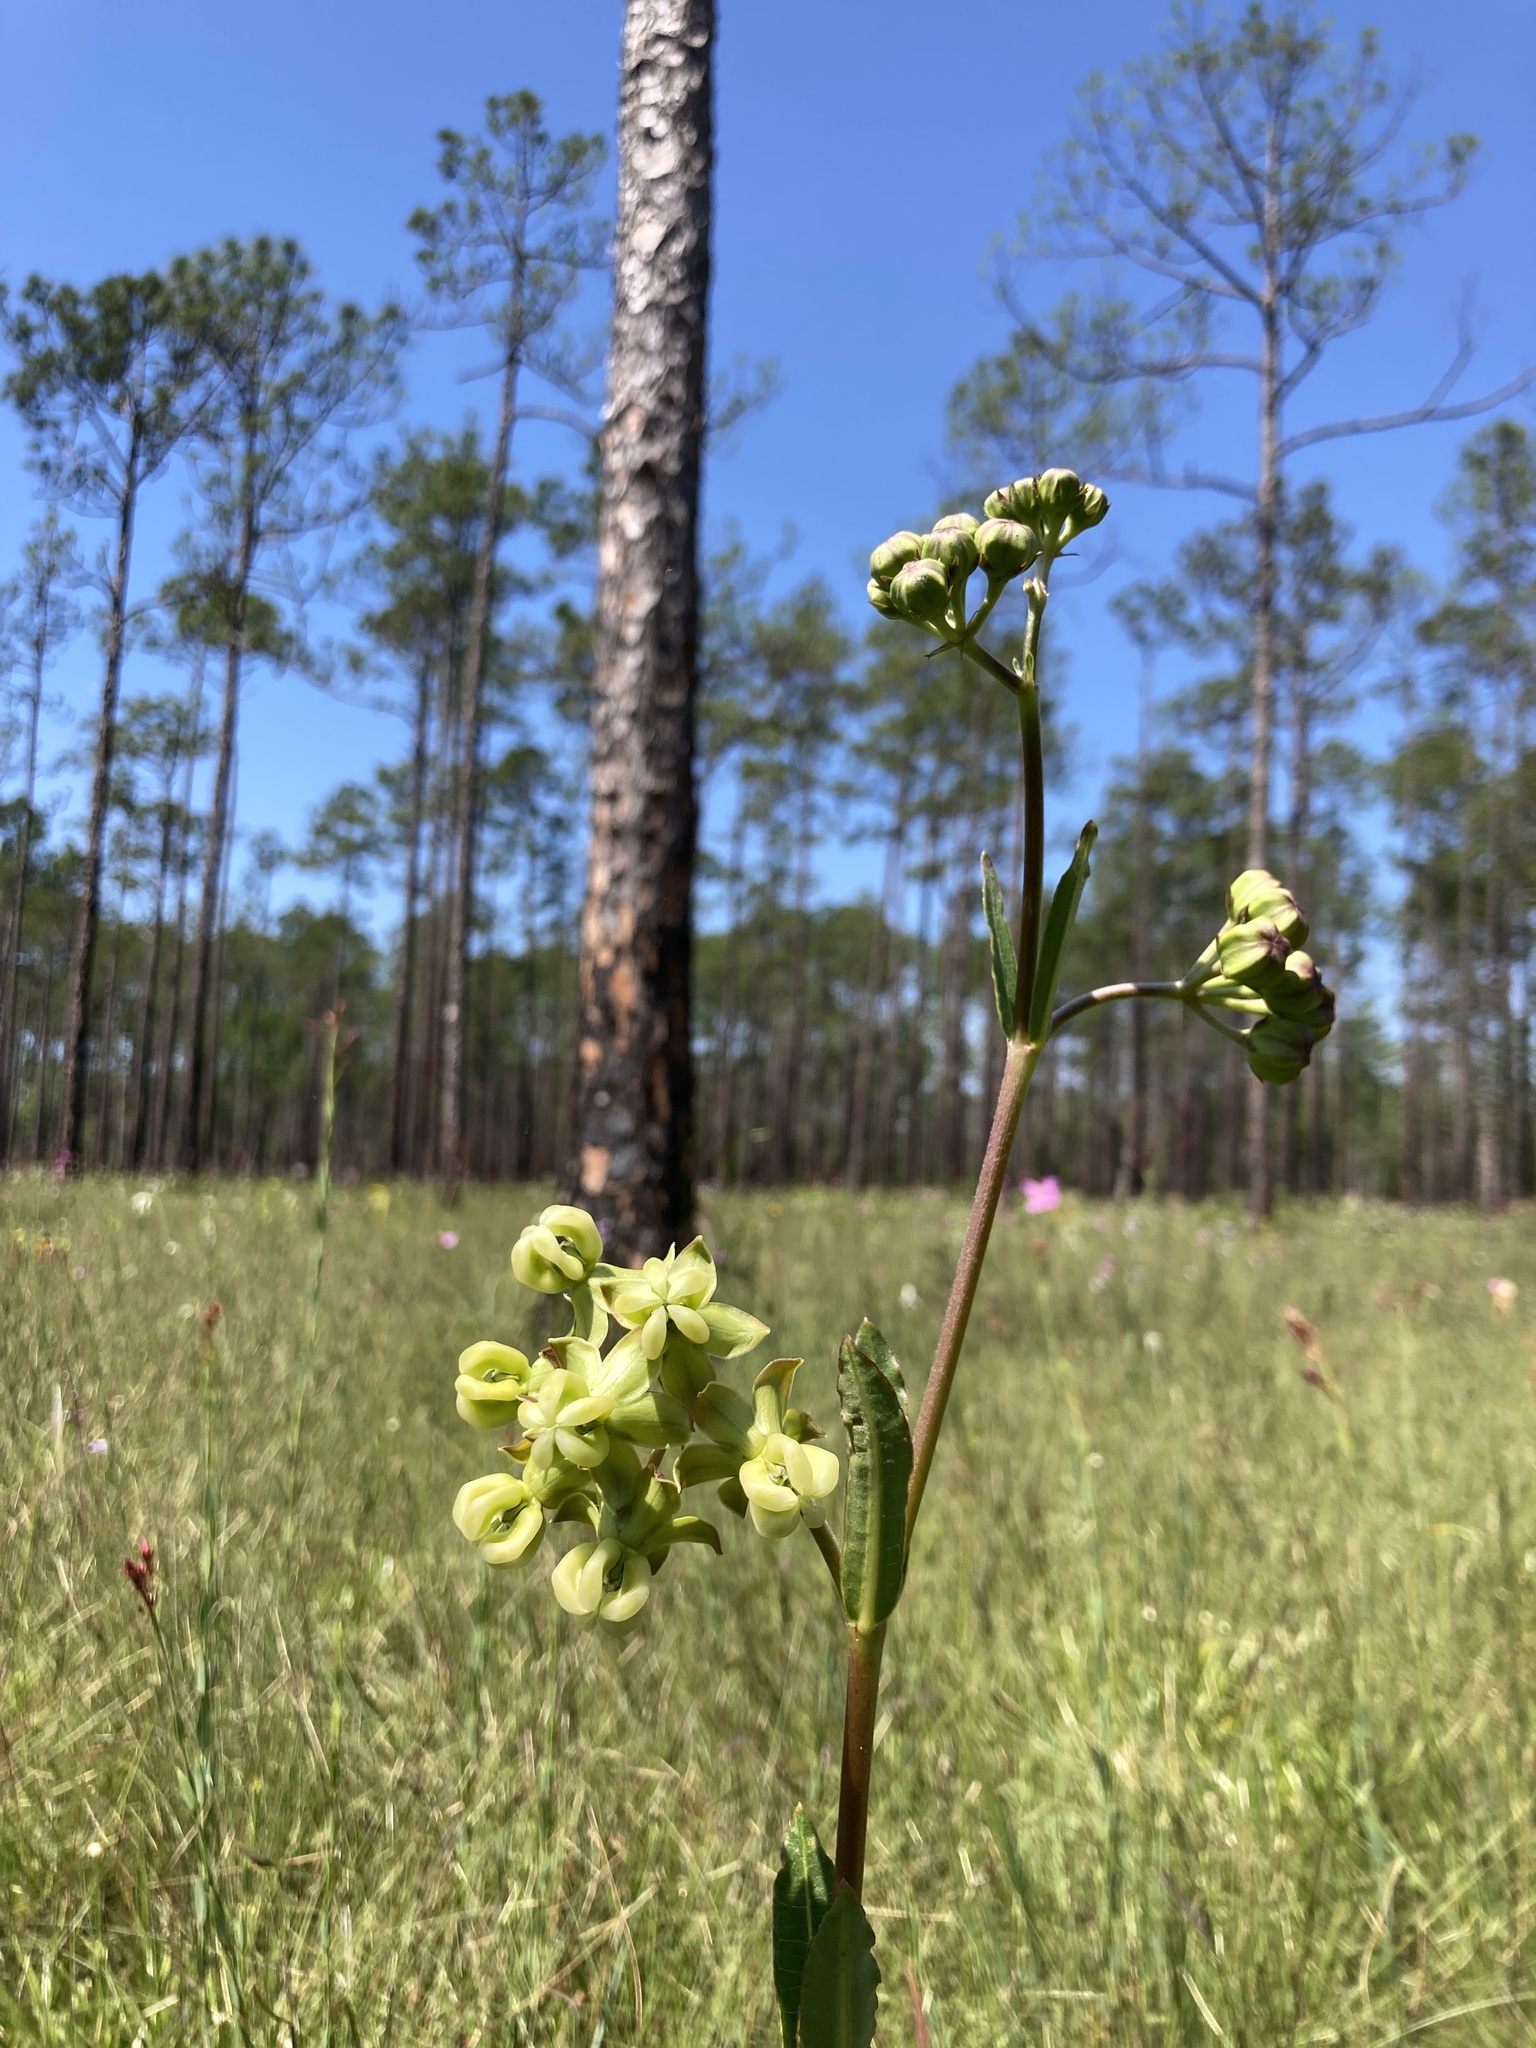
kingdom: Plantae
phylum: Tracheophyta
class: Magnoliopsida
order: Gentianales
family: Apocynaceae
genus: Asclepias
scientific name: Asclepias connivens
